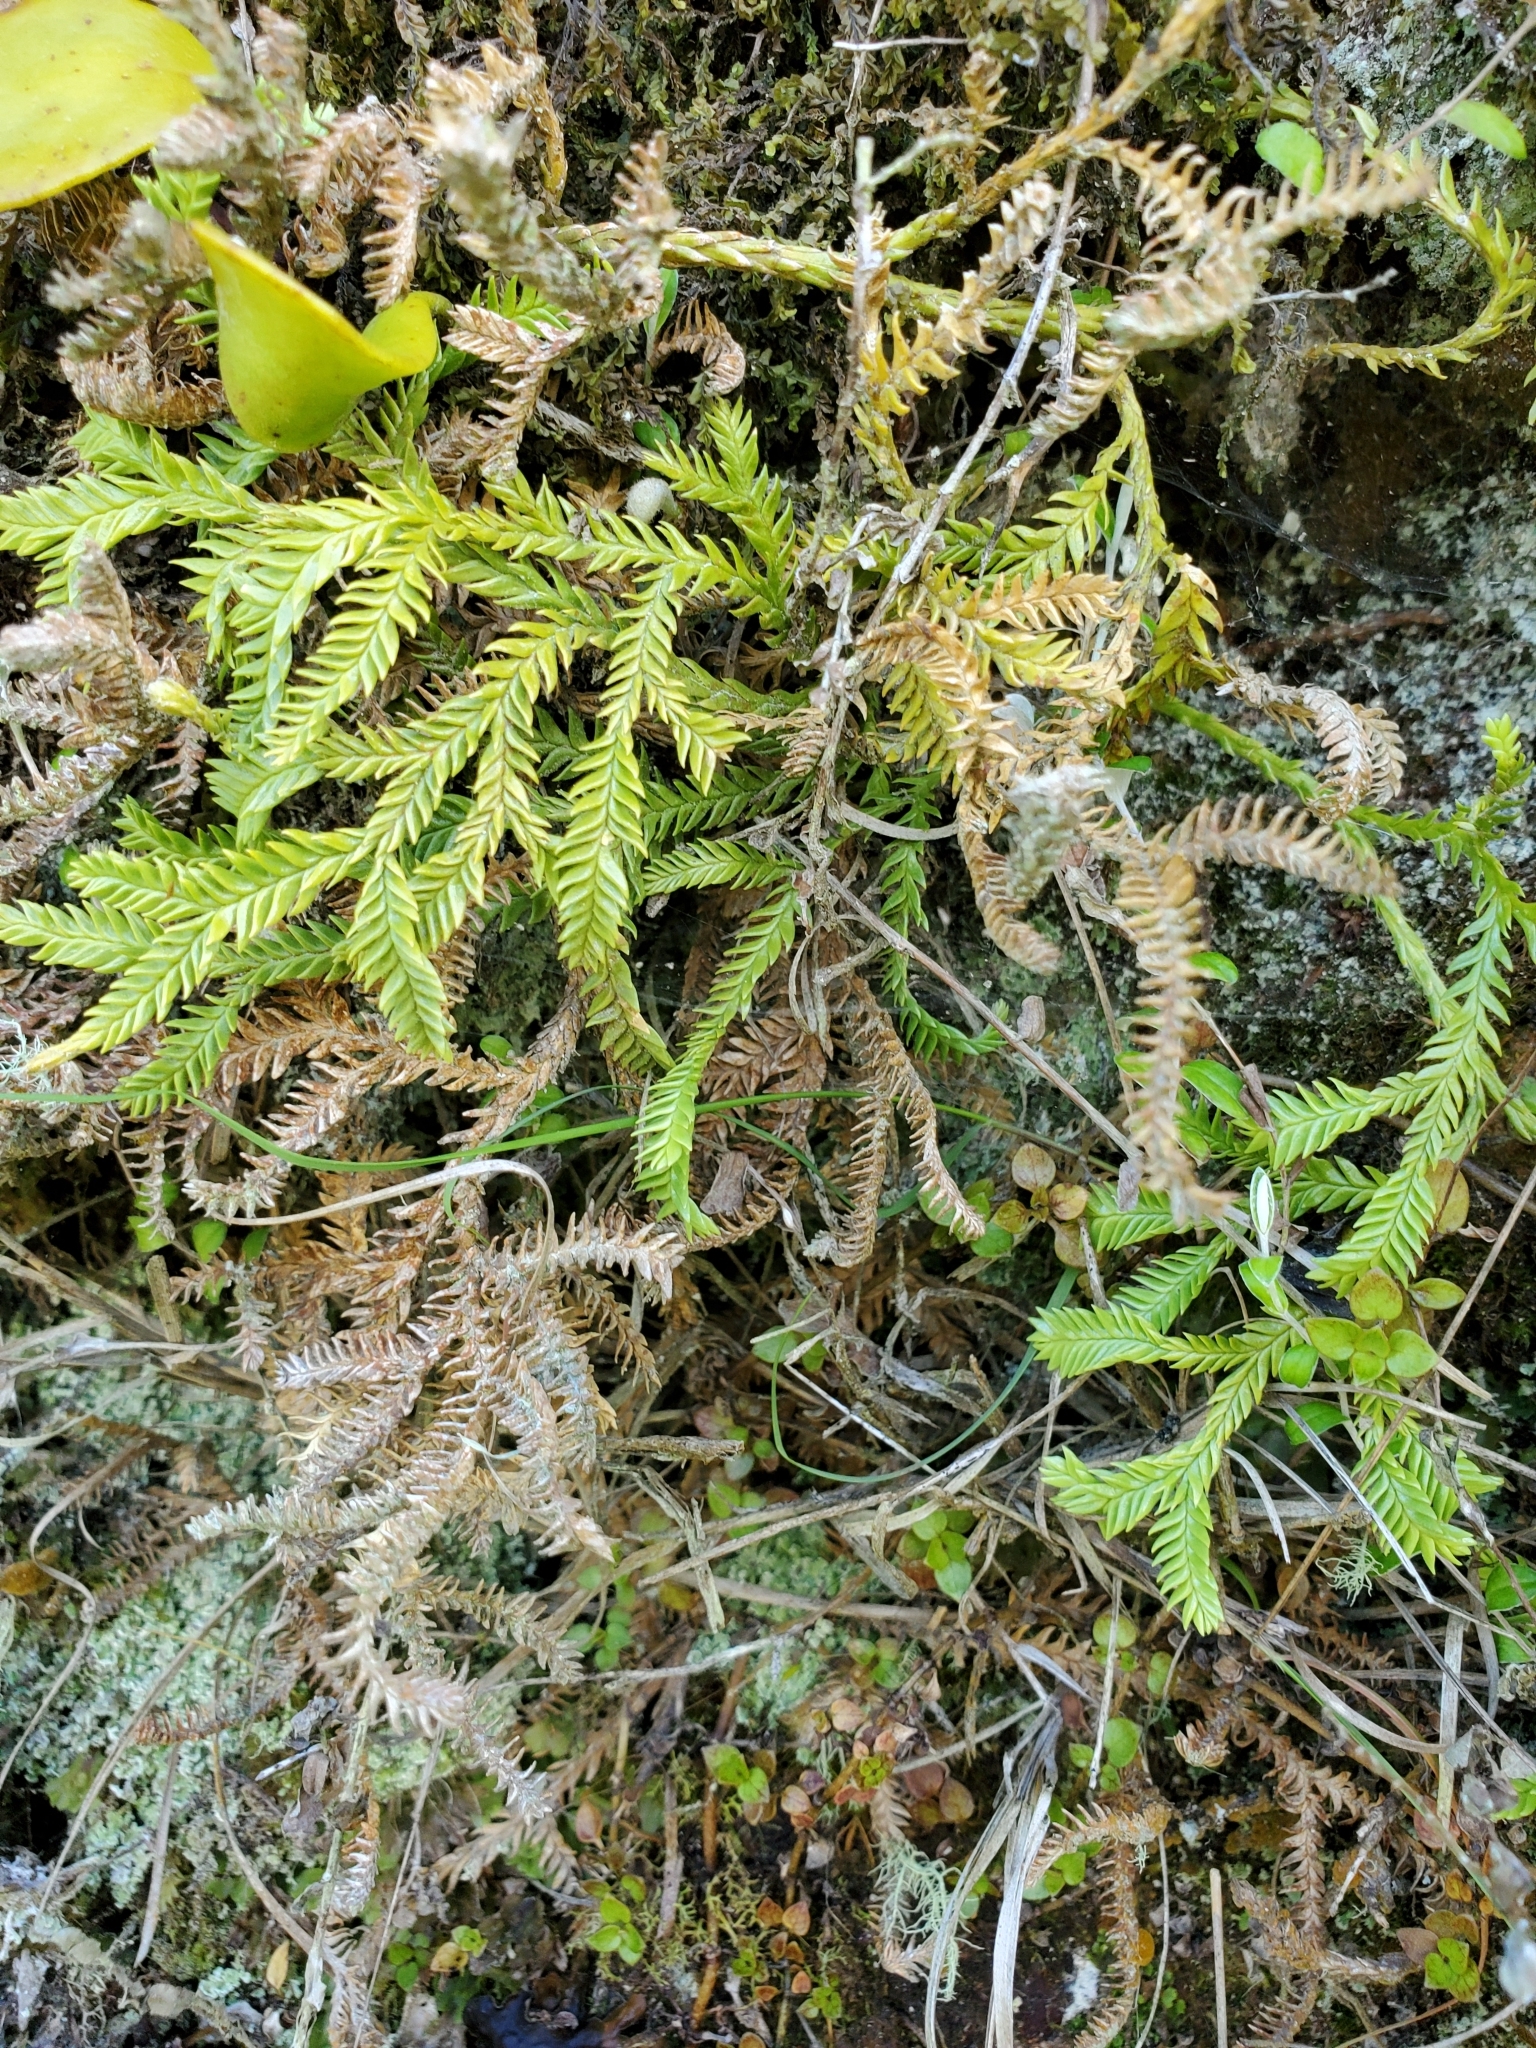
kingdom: Plantae
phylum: Tracheophyta
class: Lycopodiopsida
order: Lycopodiales
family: Lycopodiaceae
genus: Diphasium
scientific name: Diphasium scariosum
